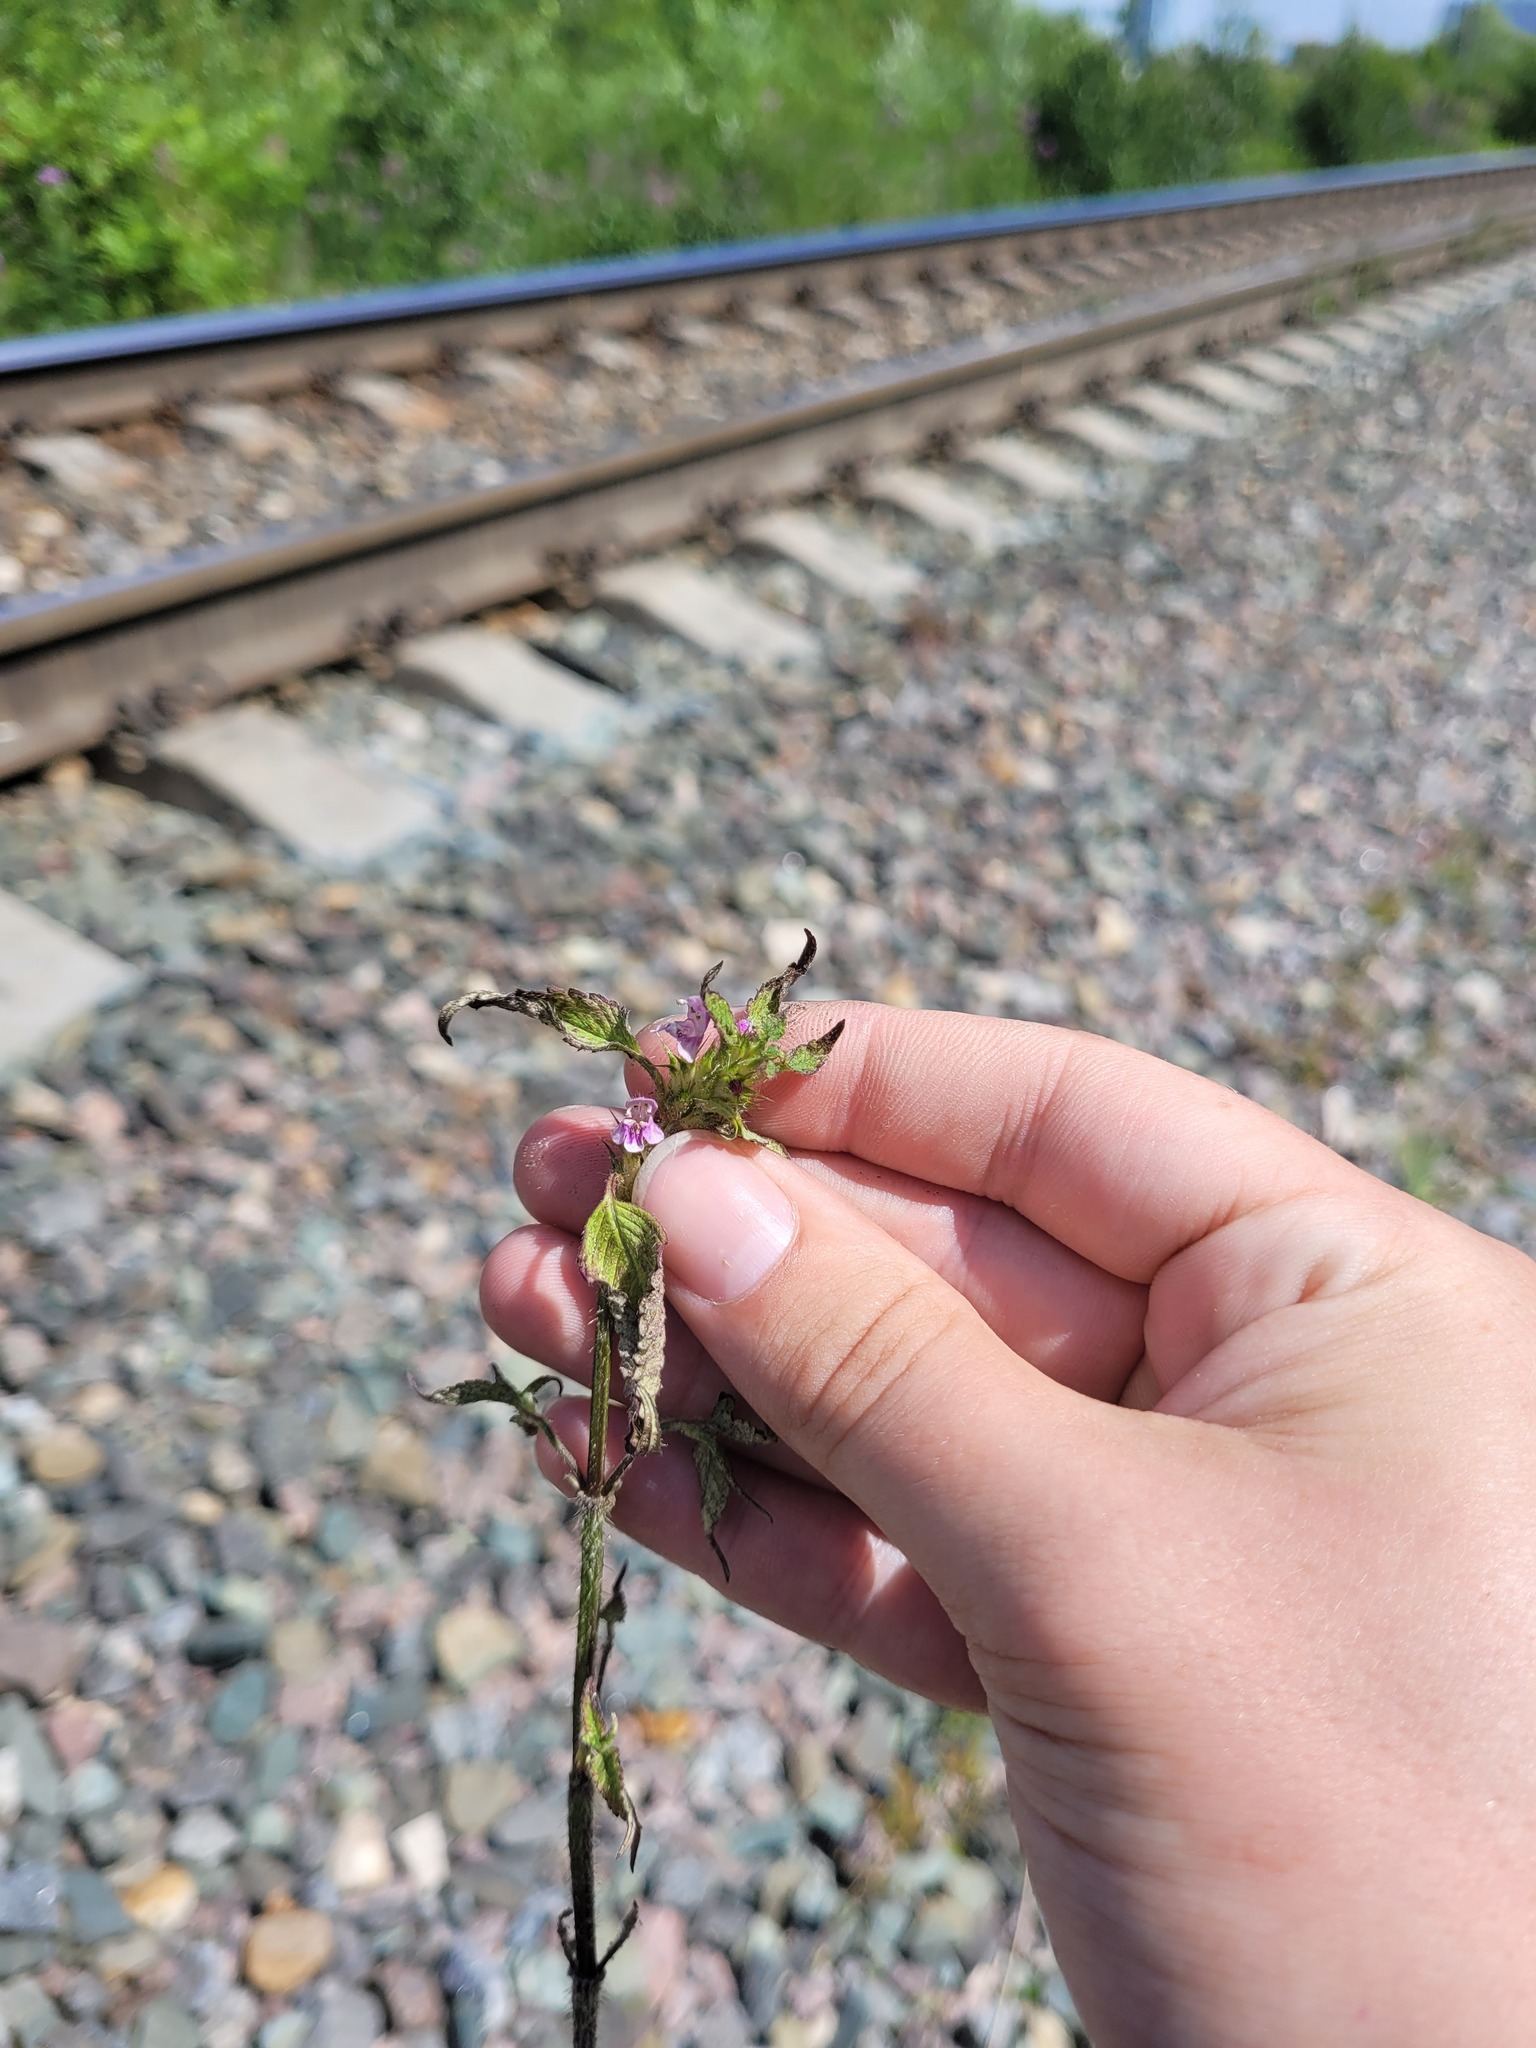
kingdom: Plantae
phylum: Tracheophyta
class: Magnoliopsida
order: Lamiales
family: Lamiaceae
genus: Galeopsis
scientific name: Galeopsis tetrahit
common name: Common hemp-nettle
